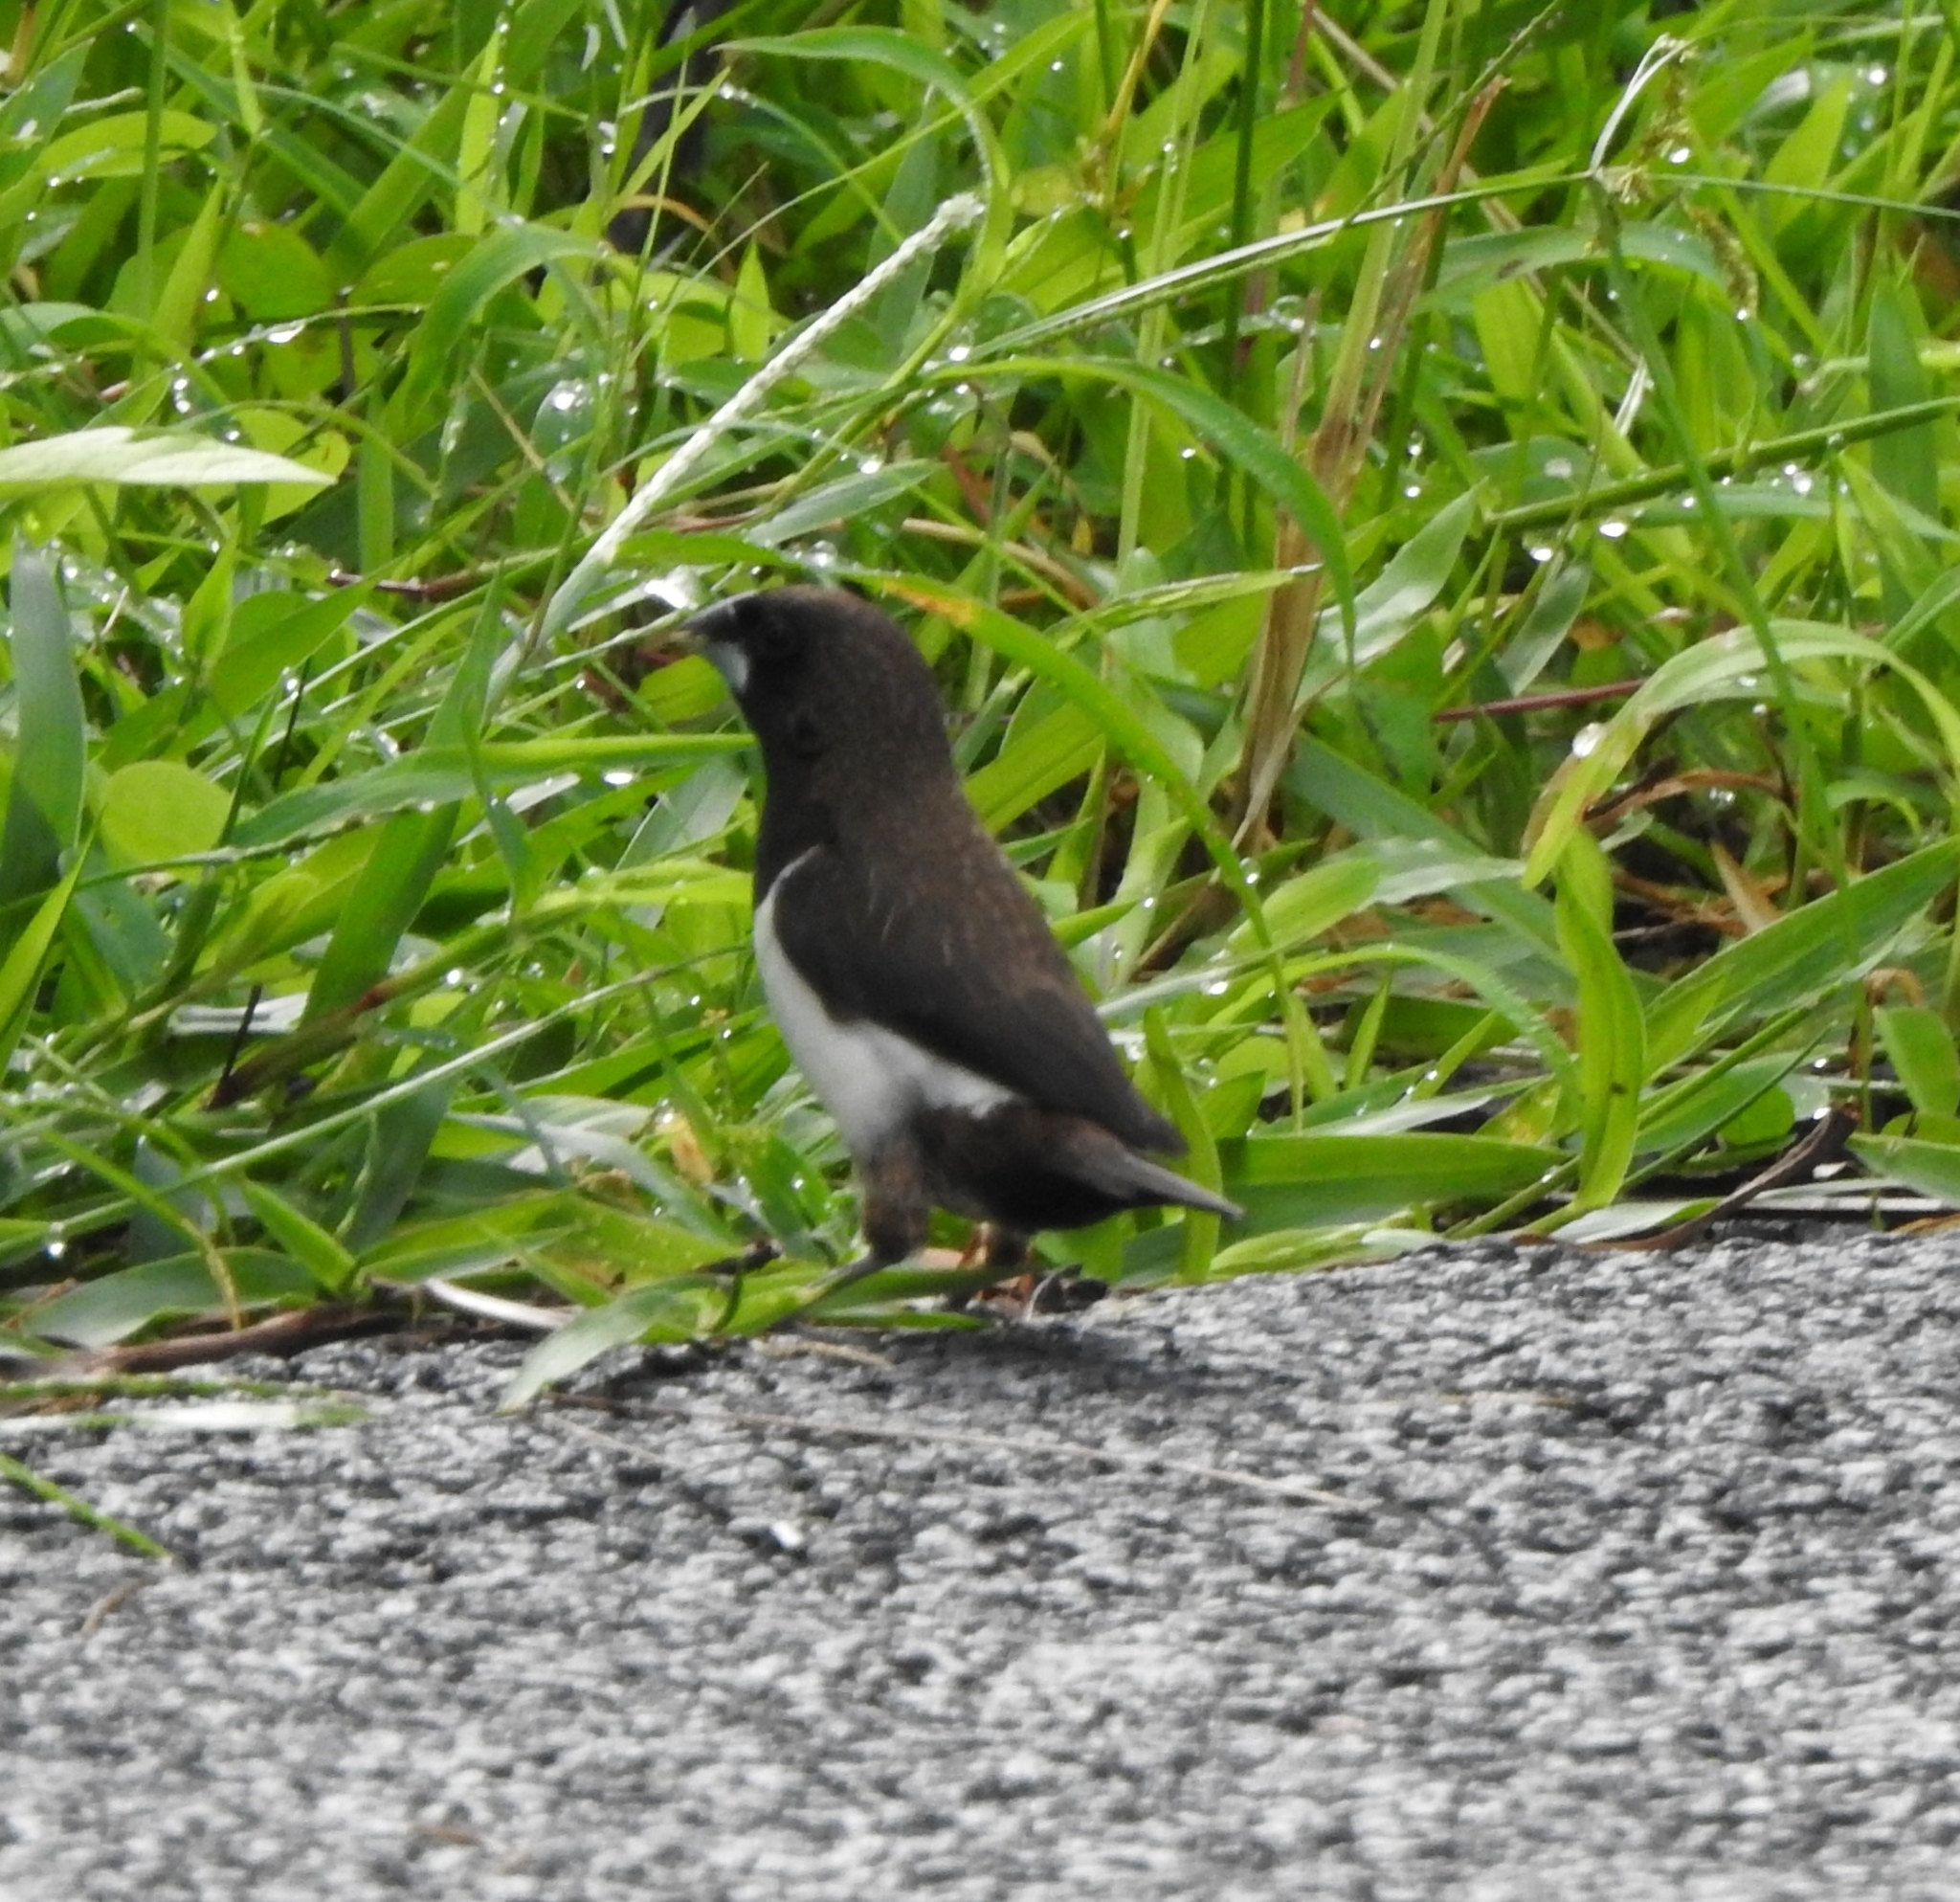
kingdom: Animalia
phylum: Chordata
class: Aves
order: Passeriformes
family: Estrildidae
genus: Lonchura
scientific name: Lonchura striata
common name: White-rumped munia
